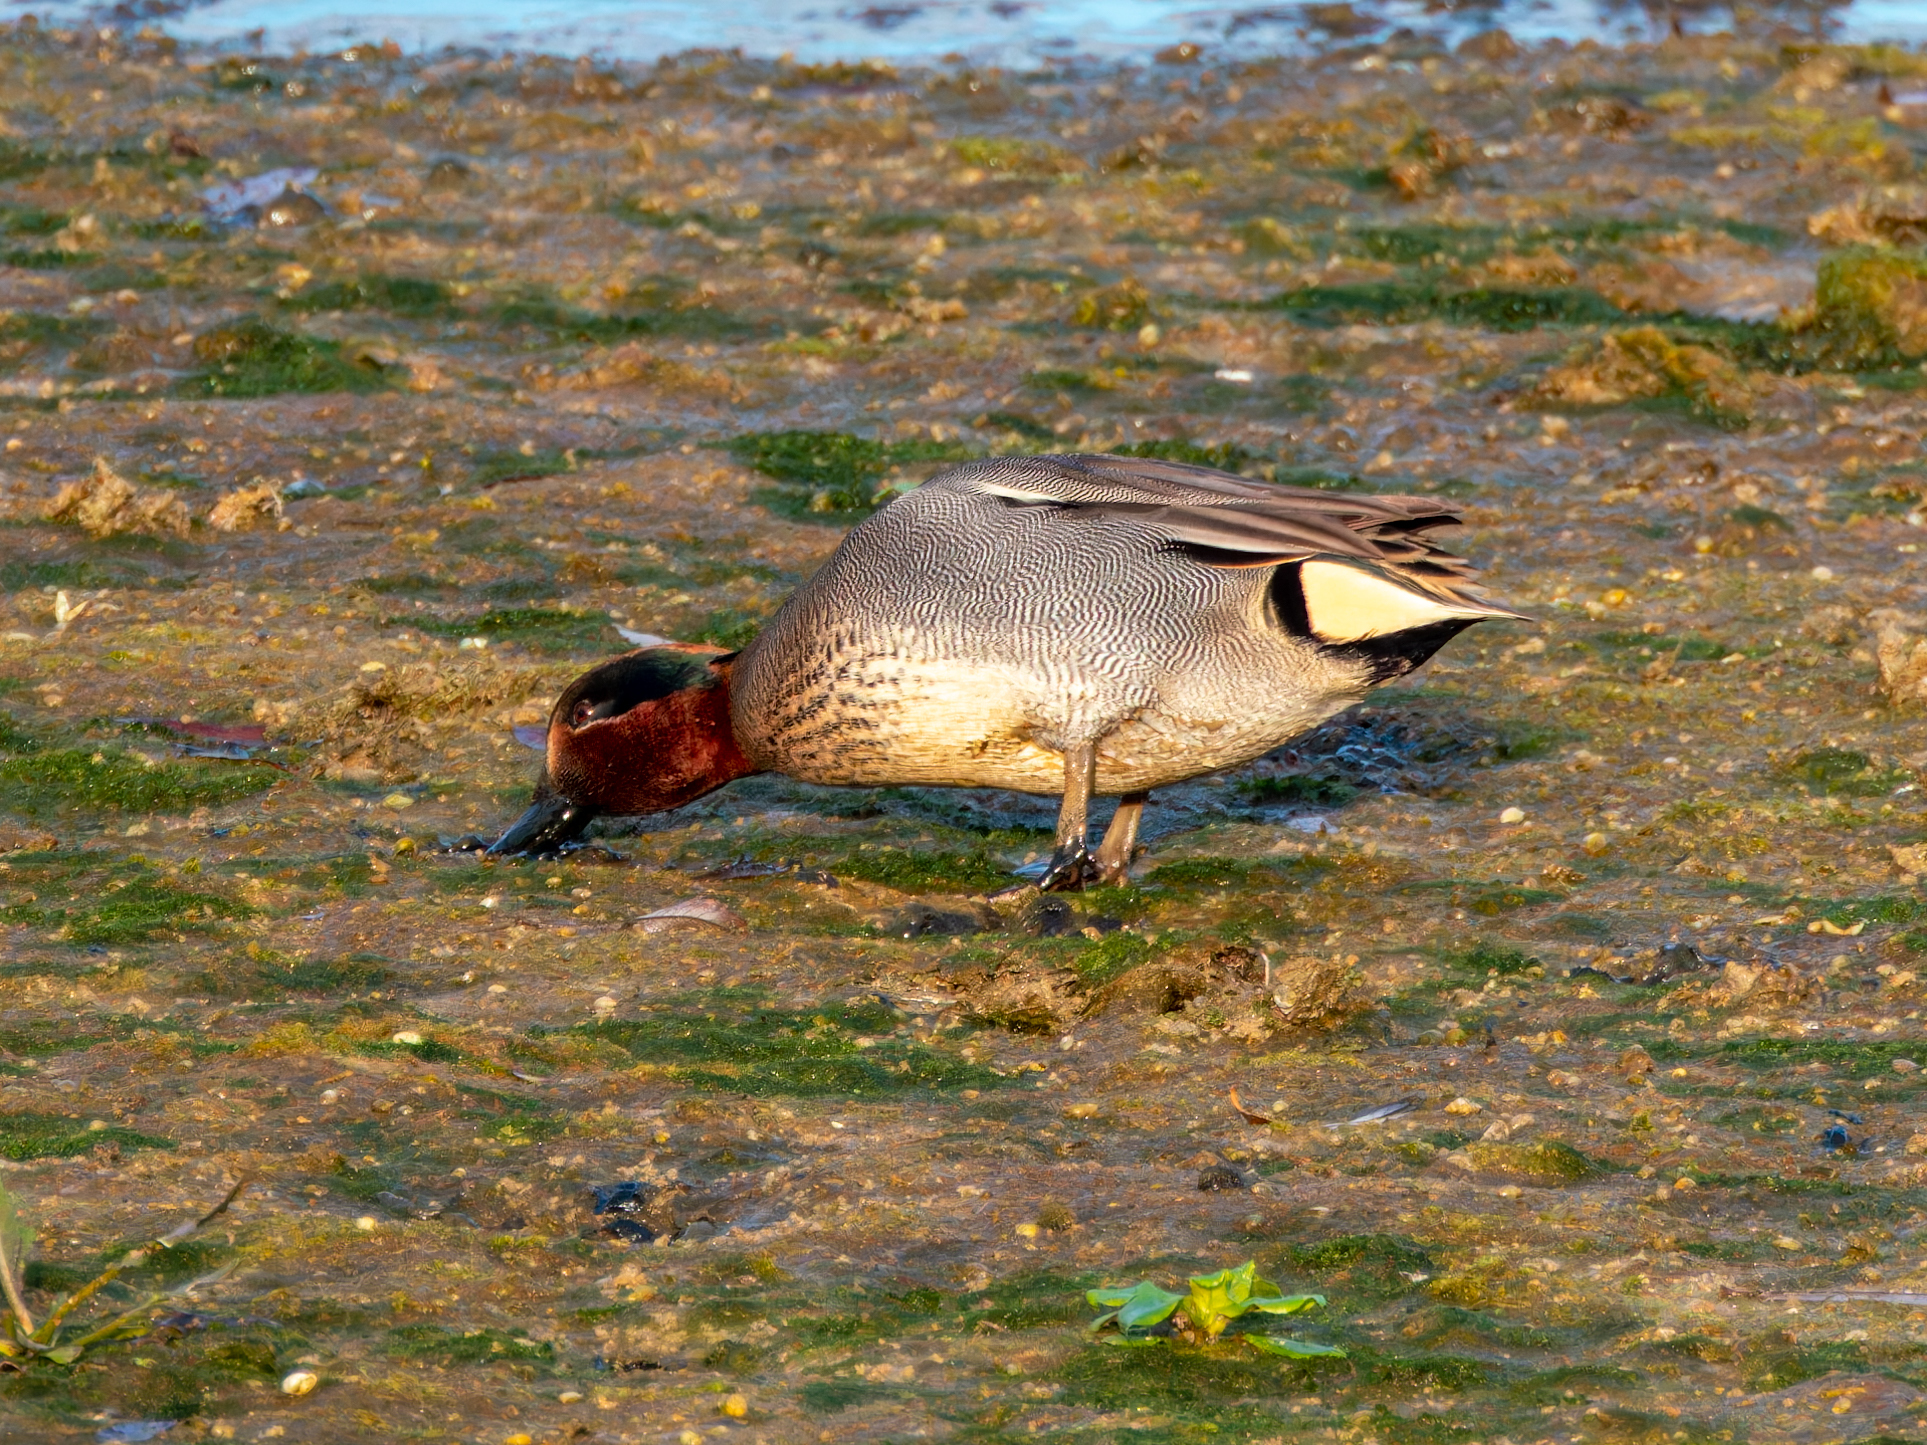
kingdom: Animalia
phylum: Chordata
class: Aves
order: Anseriformes
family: Anatidae
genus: Anas
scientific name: Anas crecca
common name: Eurasian teal
